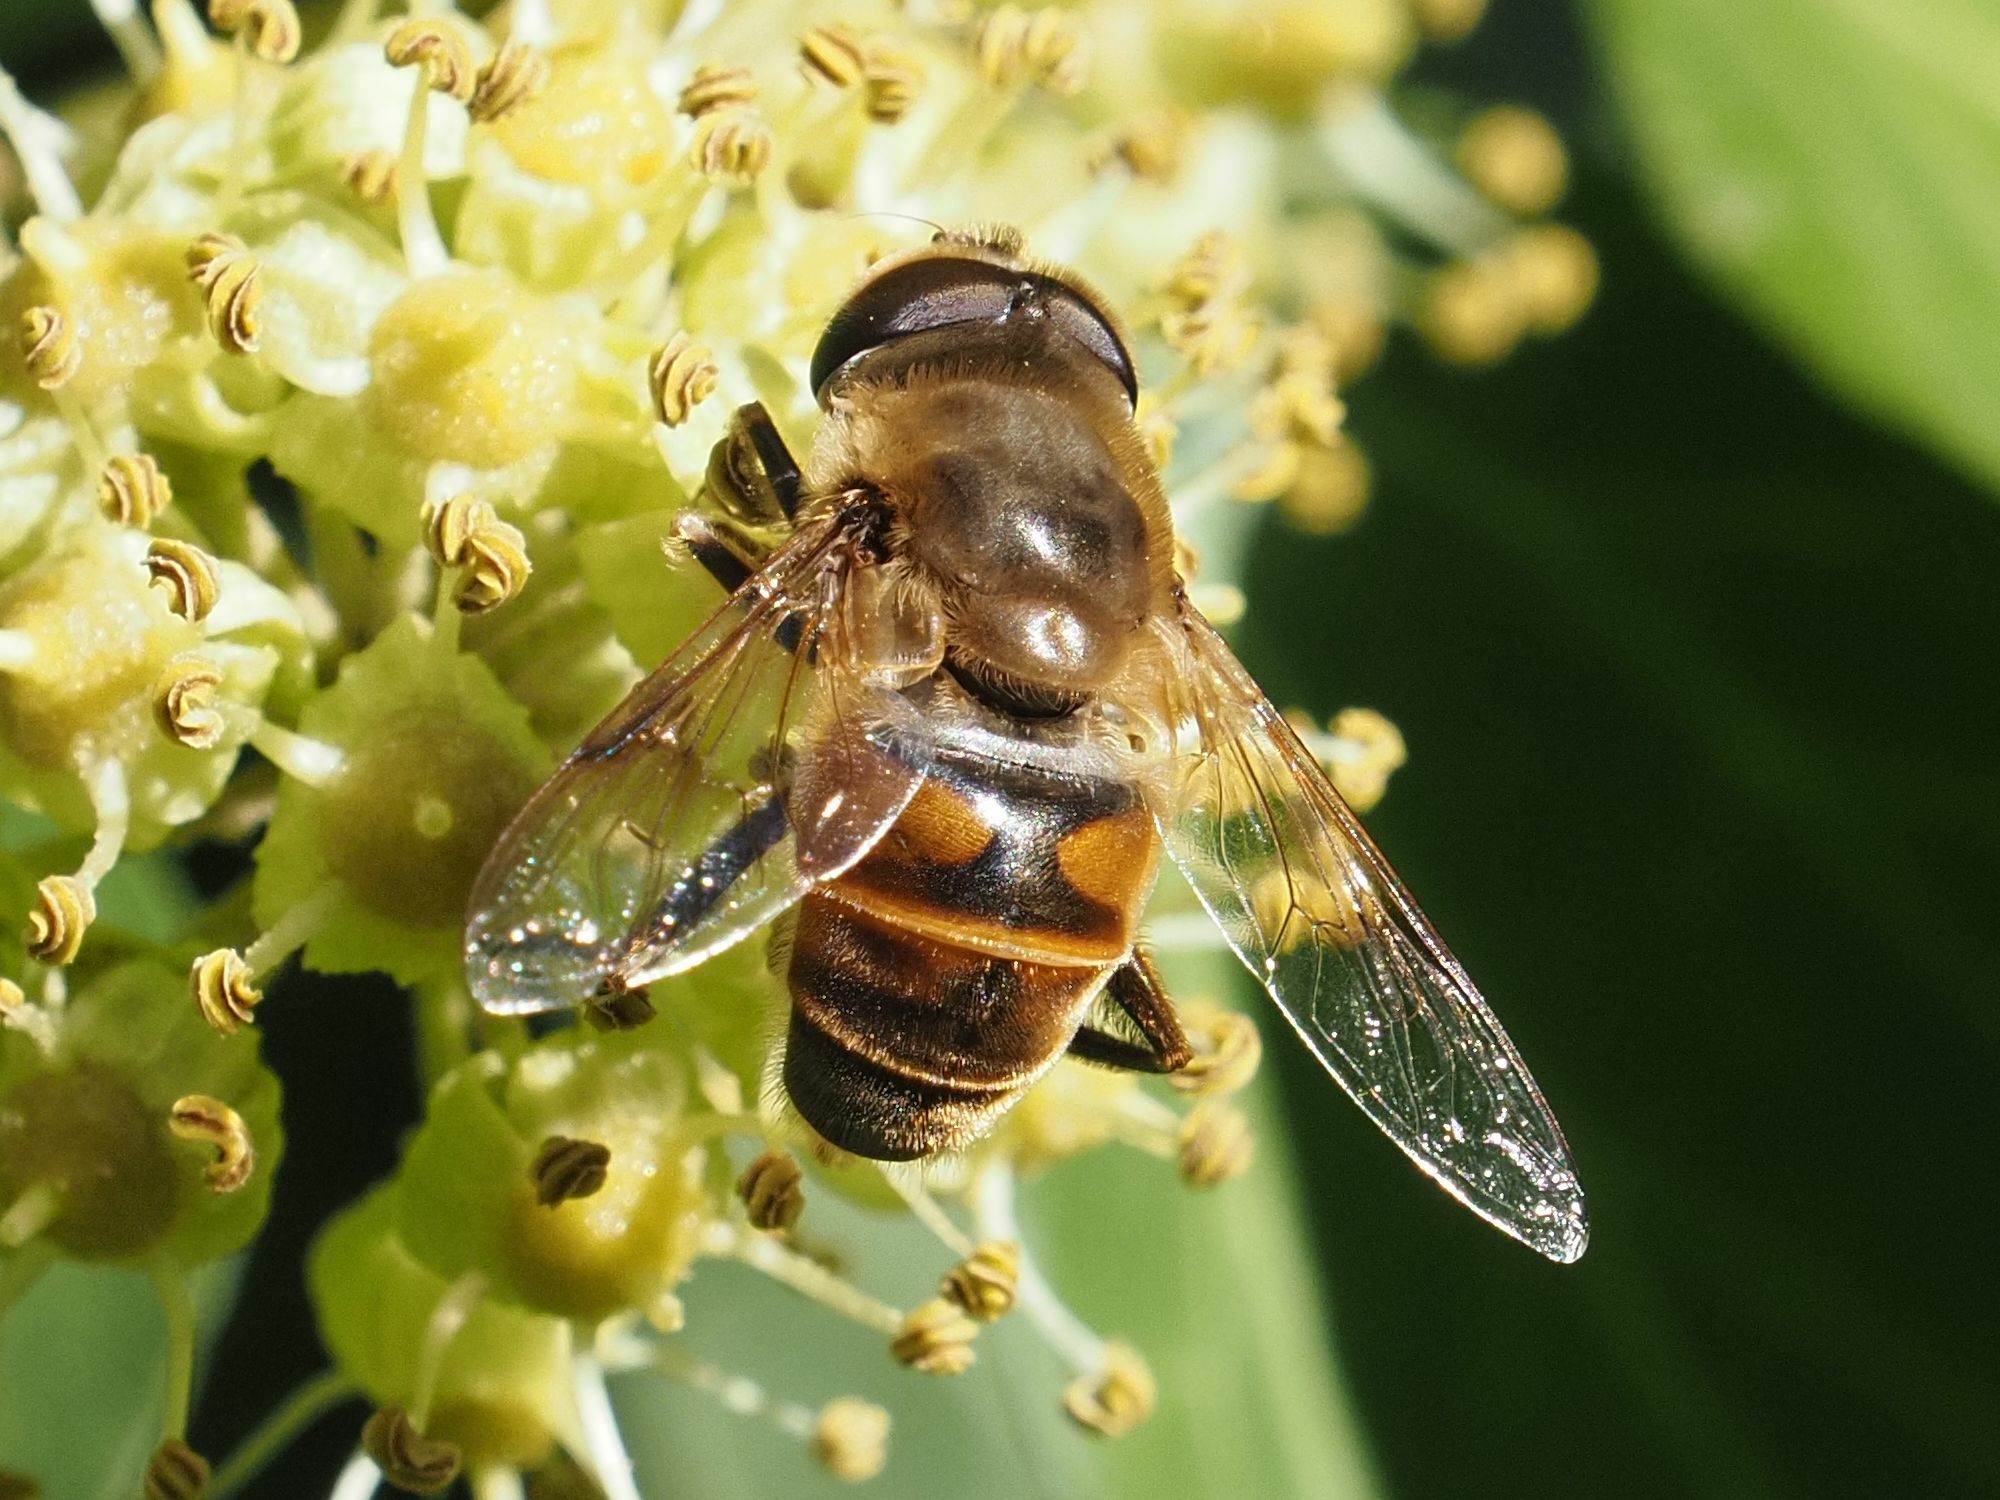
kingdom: Animalia
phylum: Arthropoda
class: Insecta
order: Diptera
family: Syrphidae
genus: Eristalis
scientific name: Eristalis tenax
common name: Drone fly
